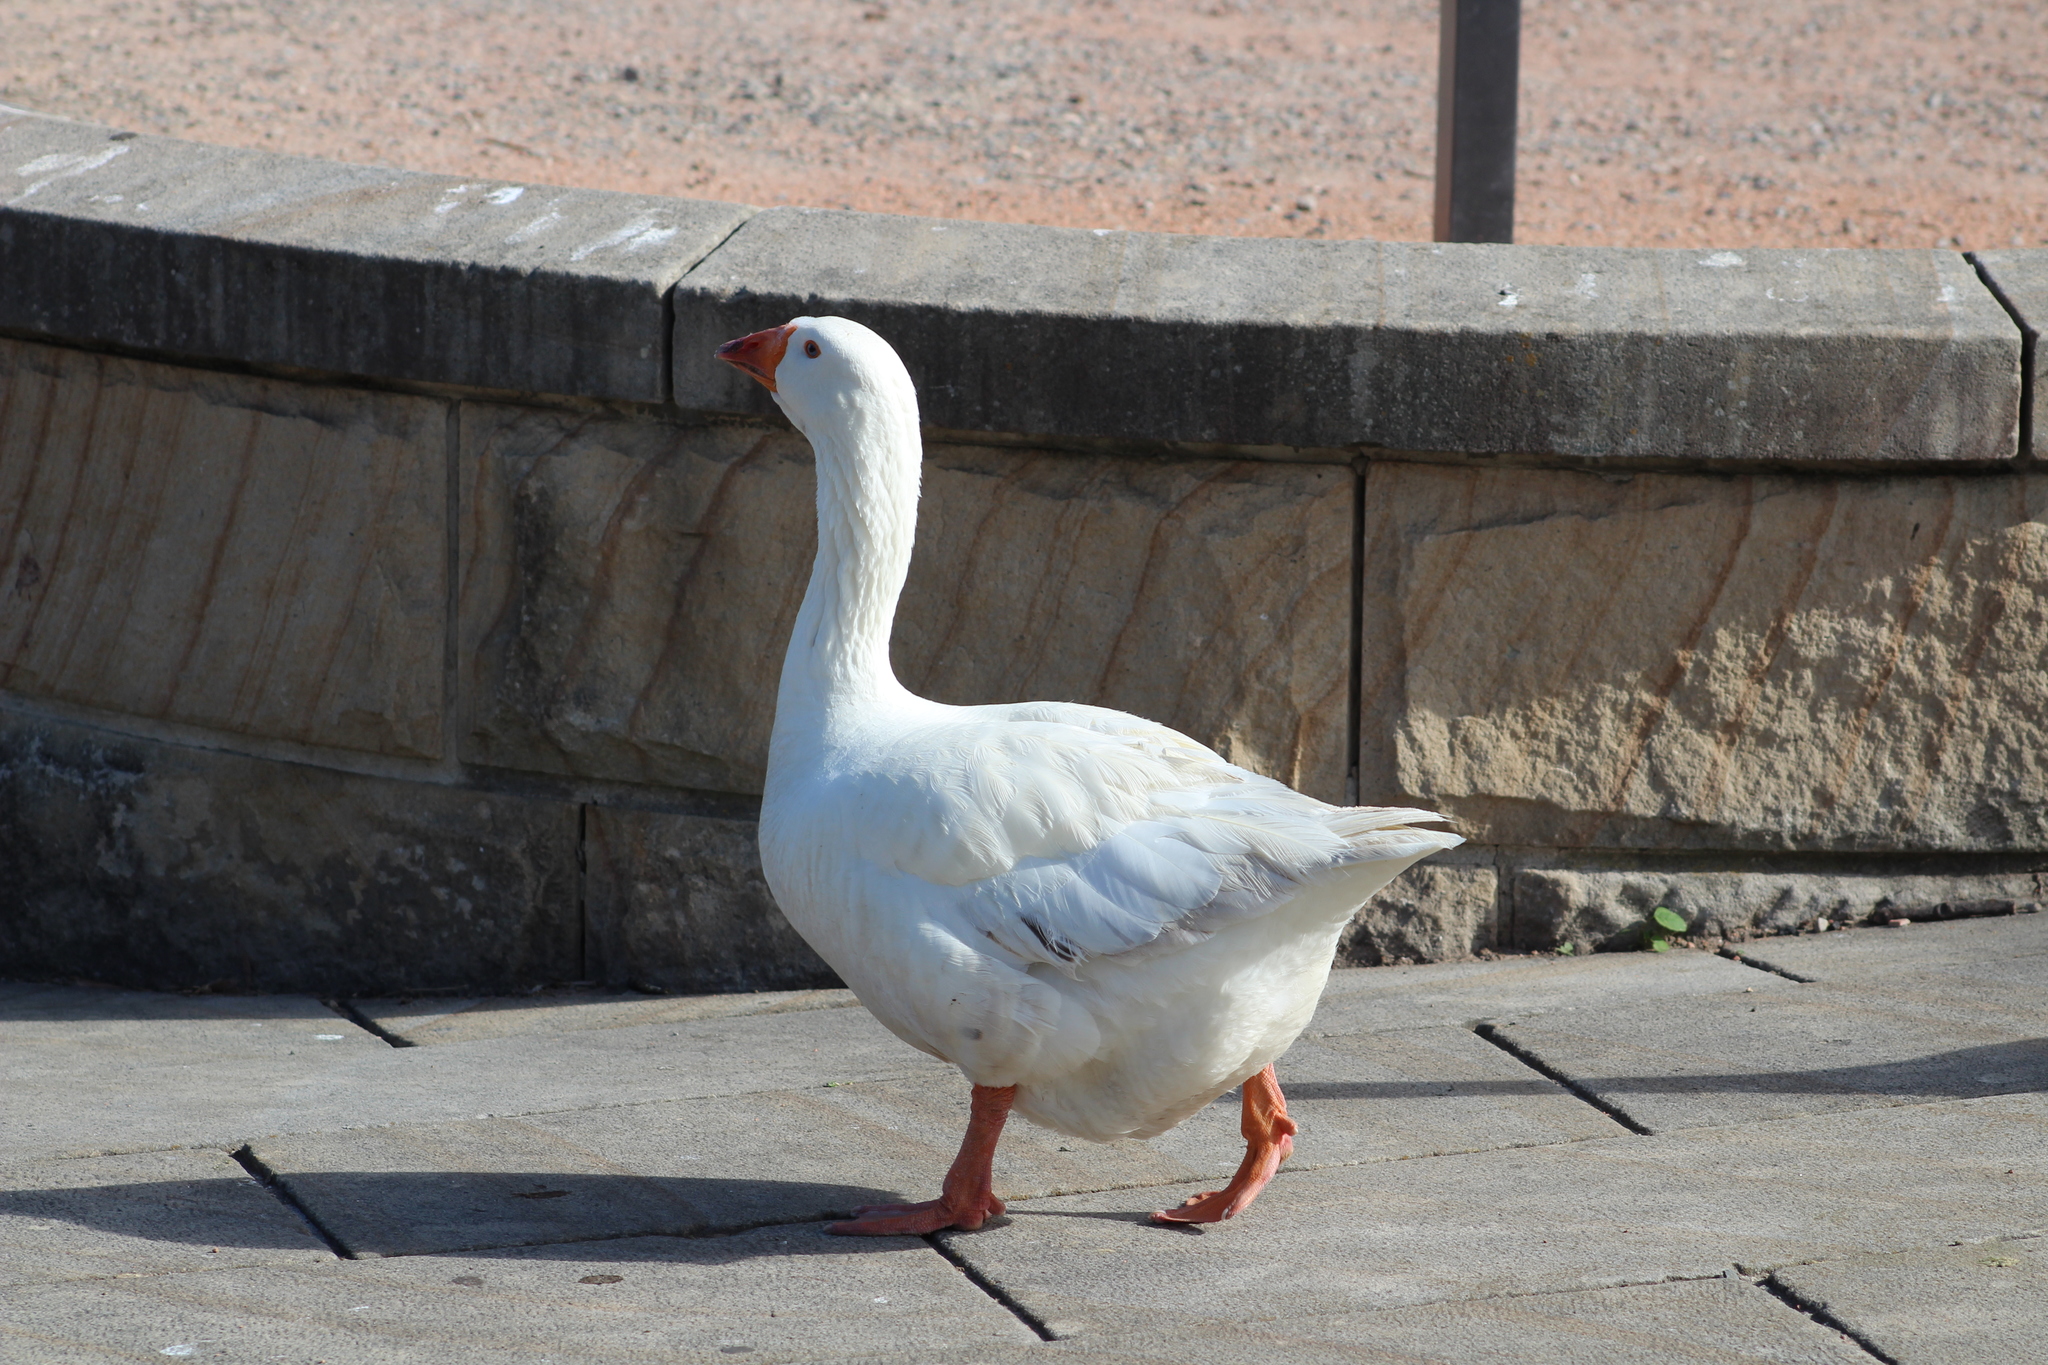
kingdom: Animalia
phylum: Chordata
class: Aves
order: Anseriformes
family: Anatidae
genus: Anser
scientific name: Anser anser
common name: Greylag goose
